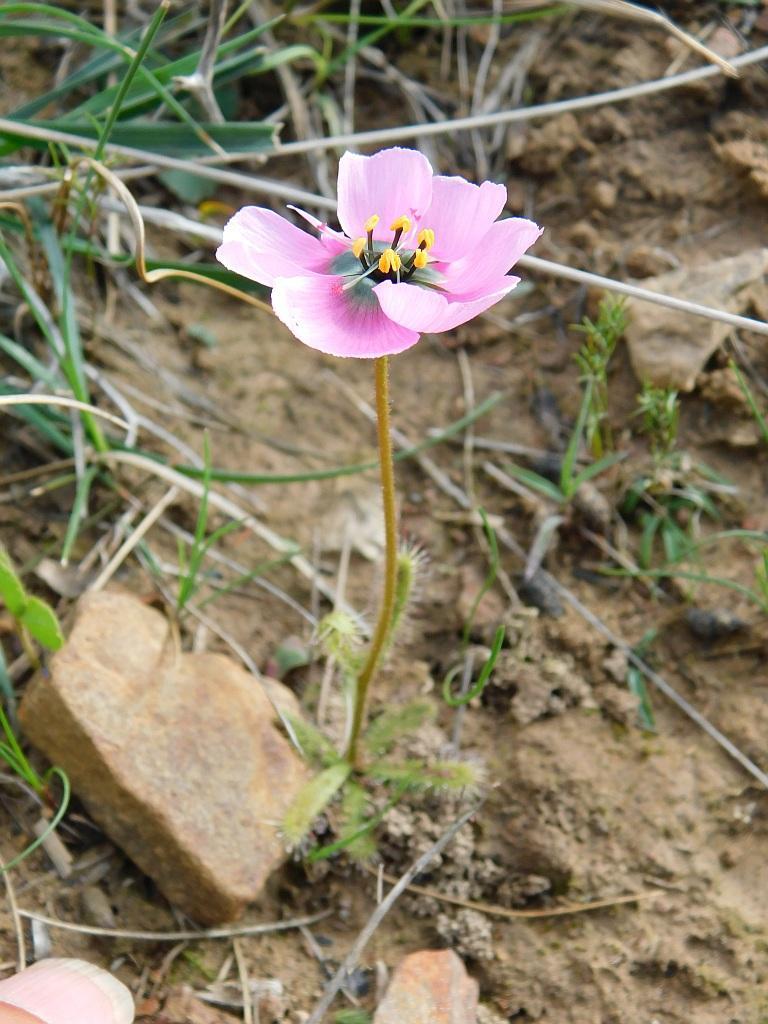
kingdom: Plantae
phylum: Tracheophyta
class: Magnoliopsida
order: Caryophyllales
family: Droseraceae
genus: Drosera
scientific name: Drosera cistiflora
